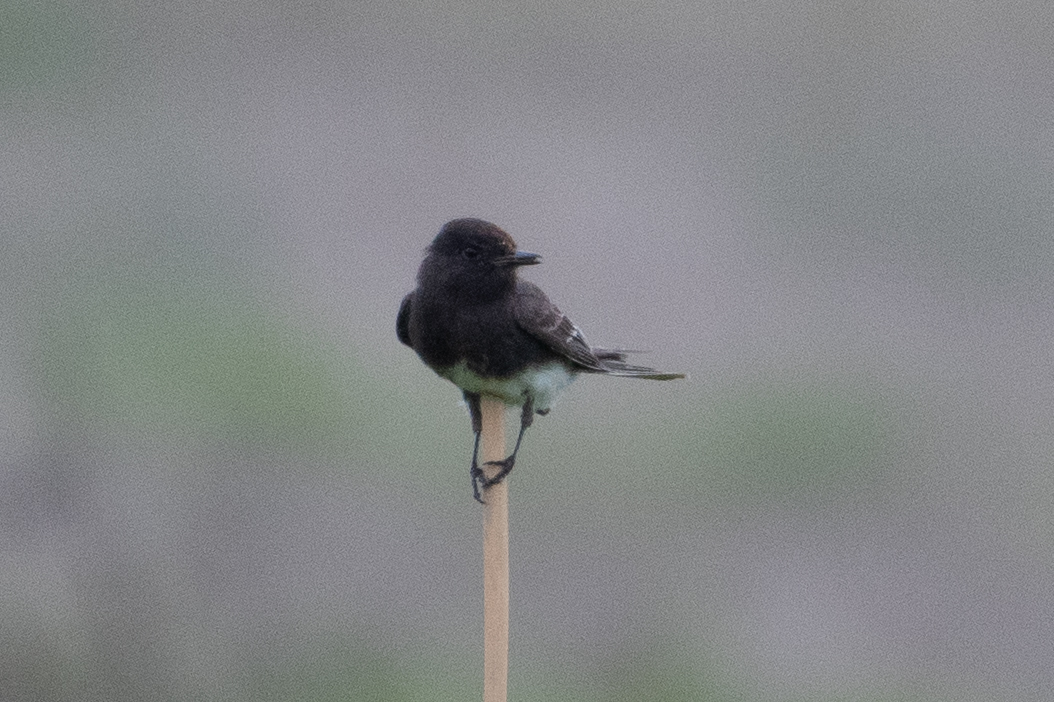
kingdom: Animalia
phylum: Chordata
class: Aves
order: Passeriformes
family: Tyrannidae
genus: Sayornis
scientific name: Sayornis nigricans
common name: Black phoebe
